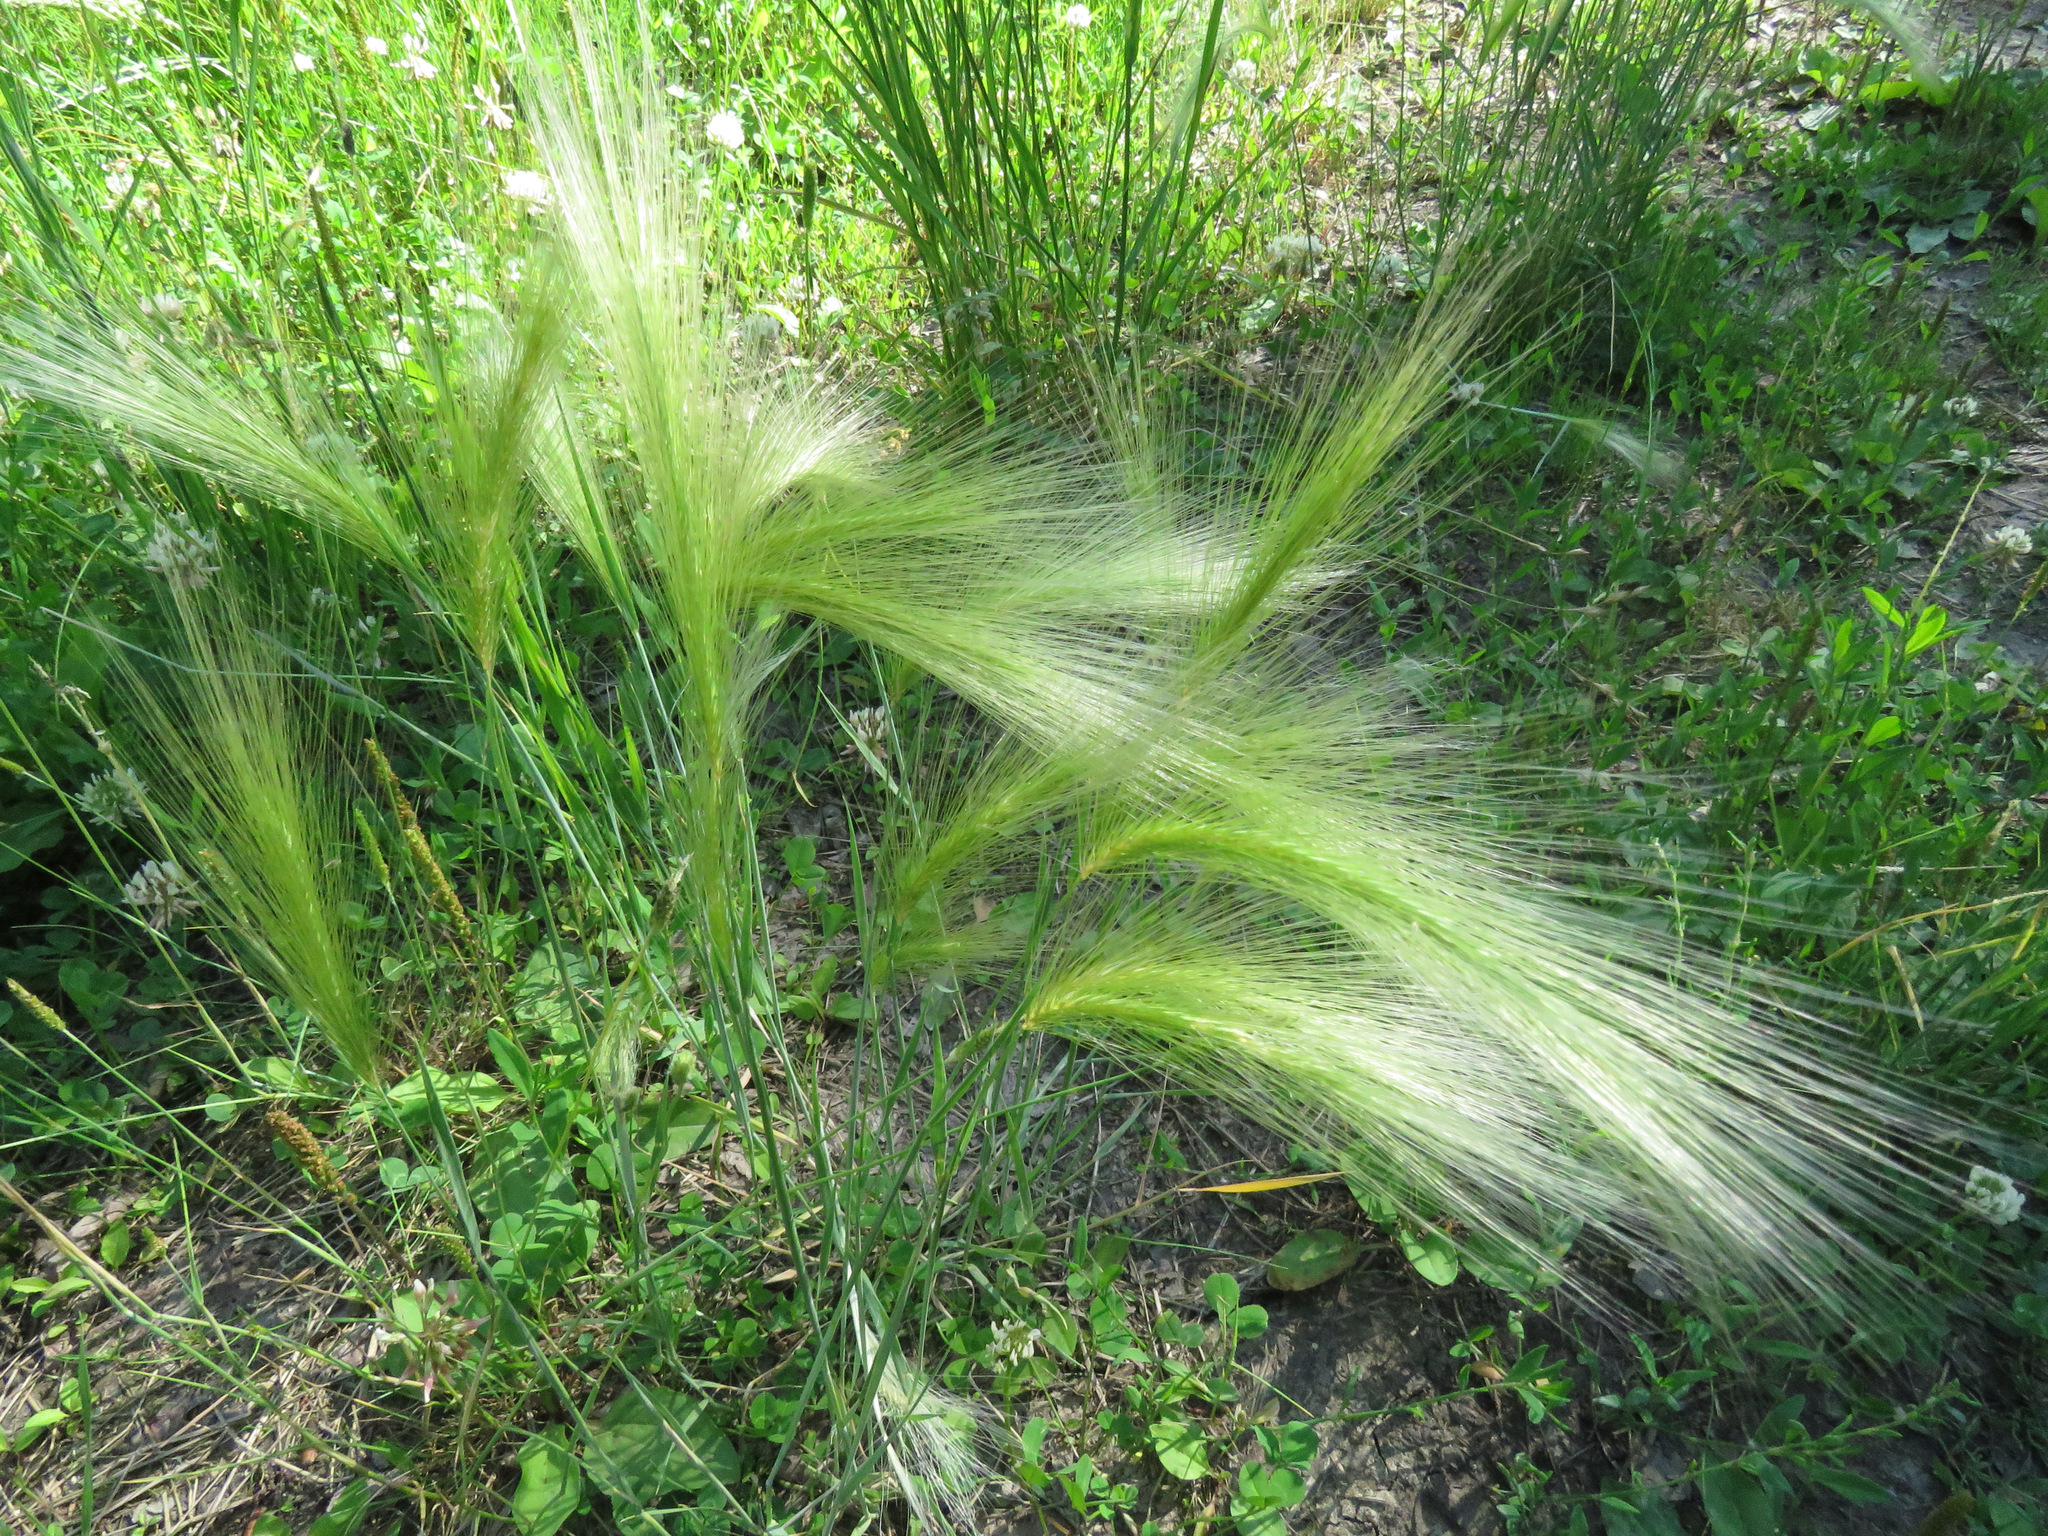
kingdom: Plantae
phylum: Tracheophyta
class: Liliopsida
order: Poales
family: Poaceae
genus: Hordeum
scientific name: Hordeum jubatum
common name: Foxtail barley
